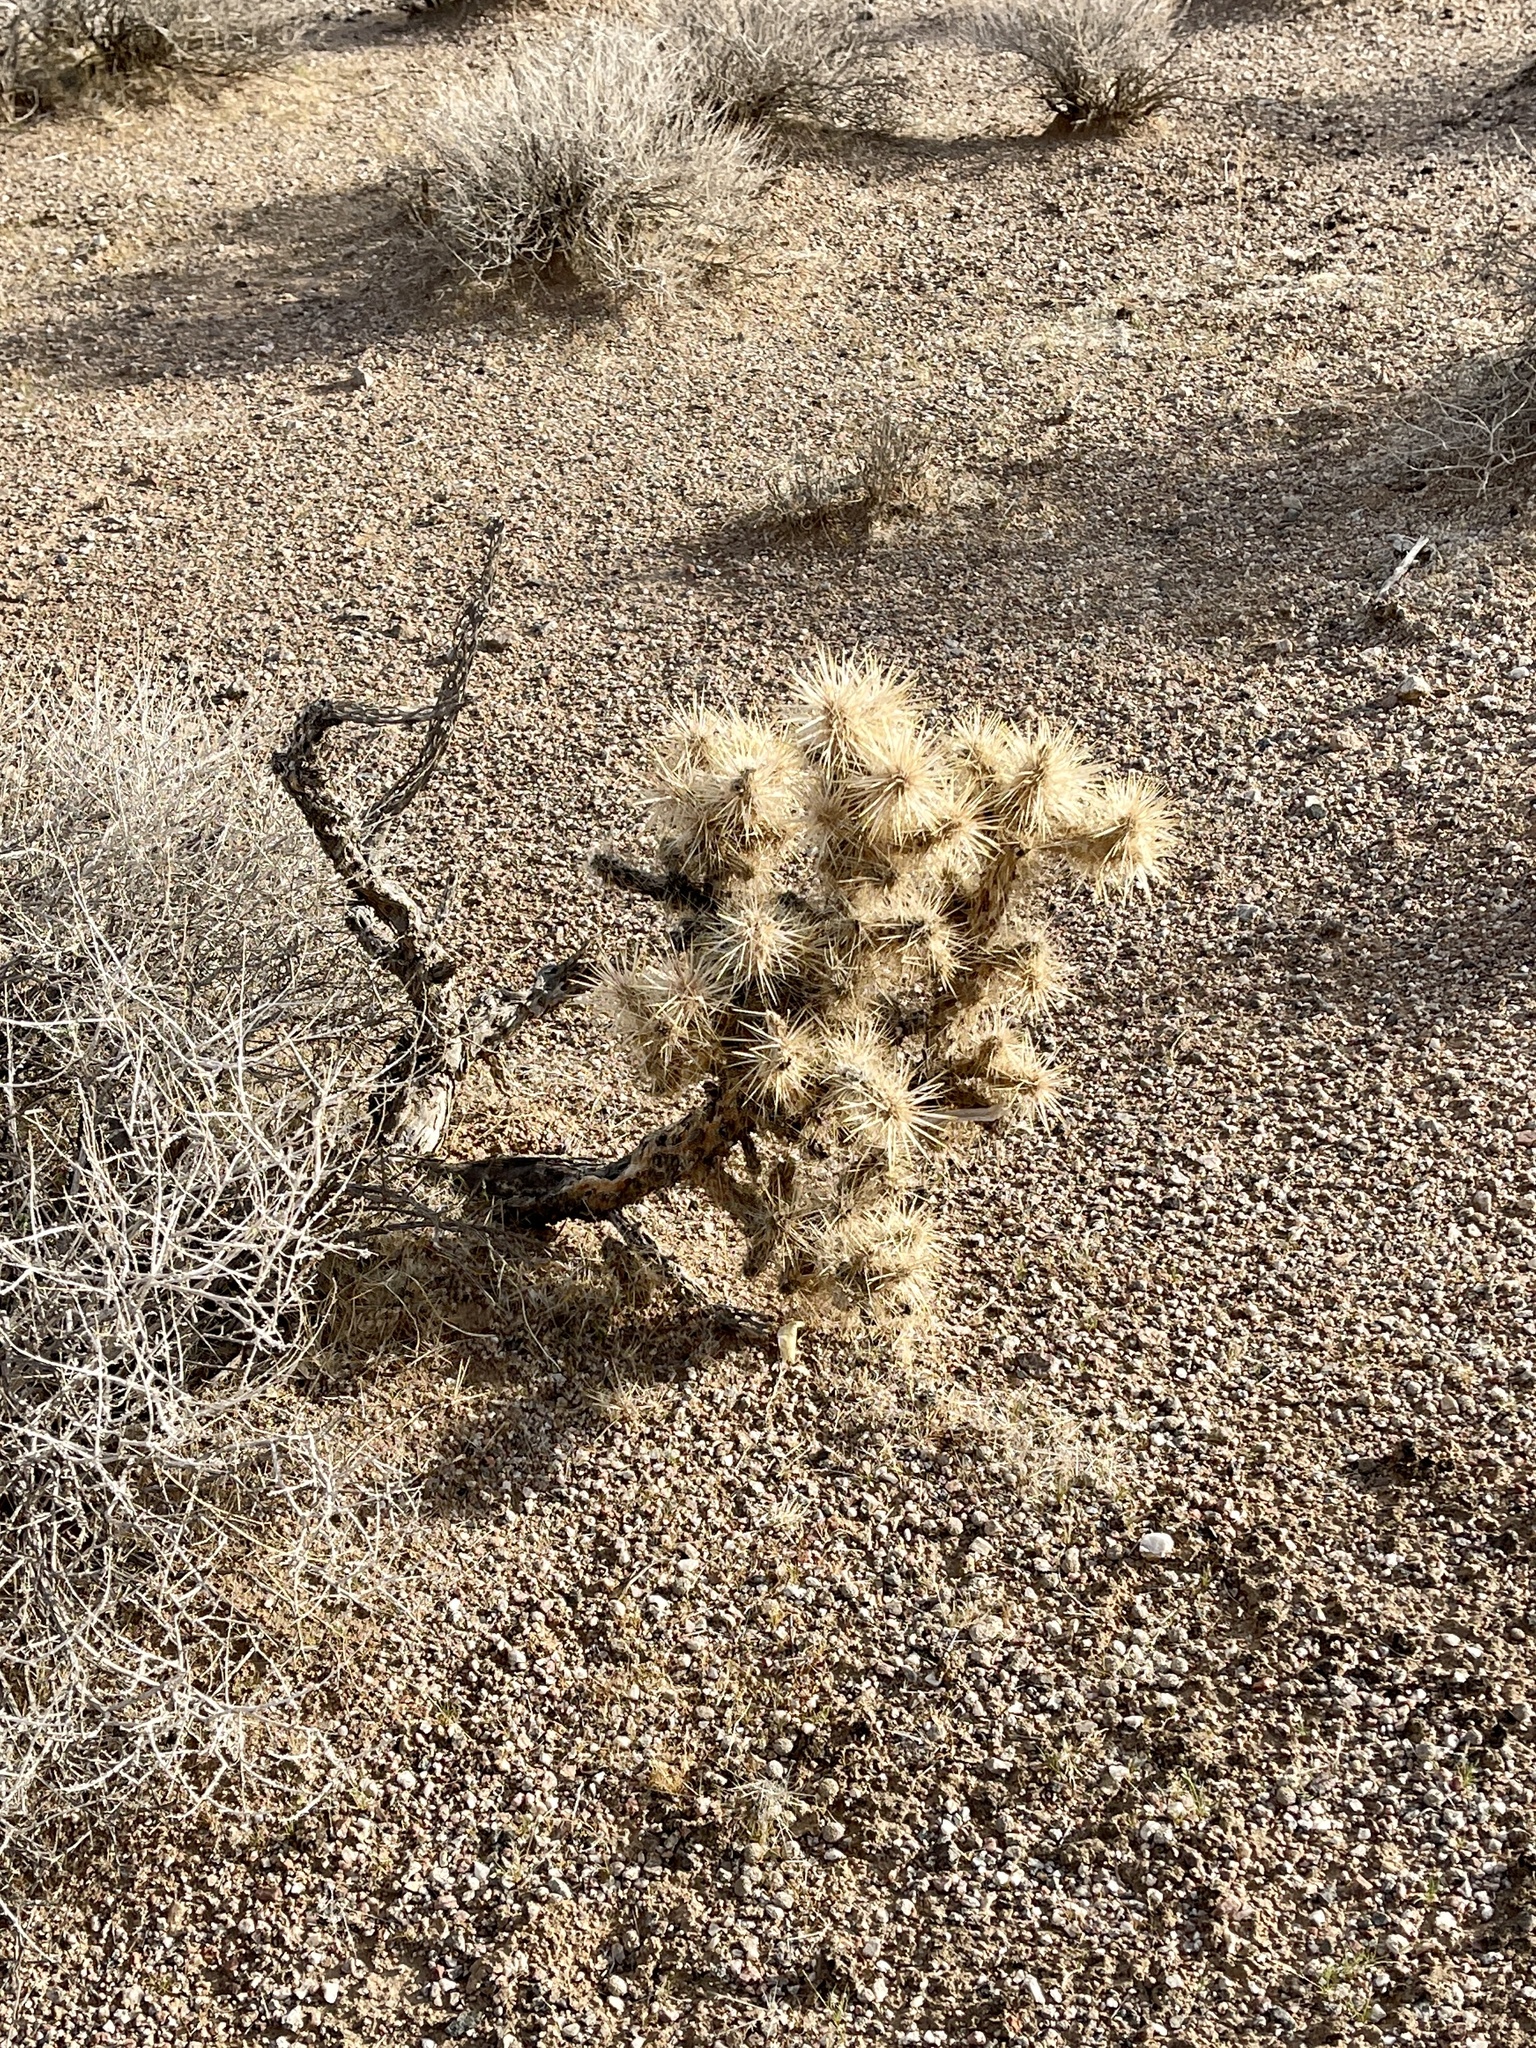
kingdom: Plantae
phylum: Tracheophyta
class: Magnoliopsida
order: Caryophyllales
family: Cactaceae
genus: Cylindropuntia
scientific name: Cylindropuntia echinocarpa
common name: Ground cholla
